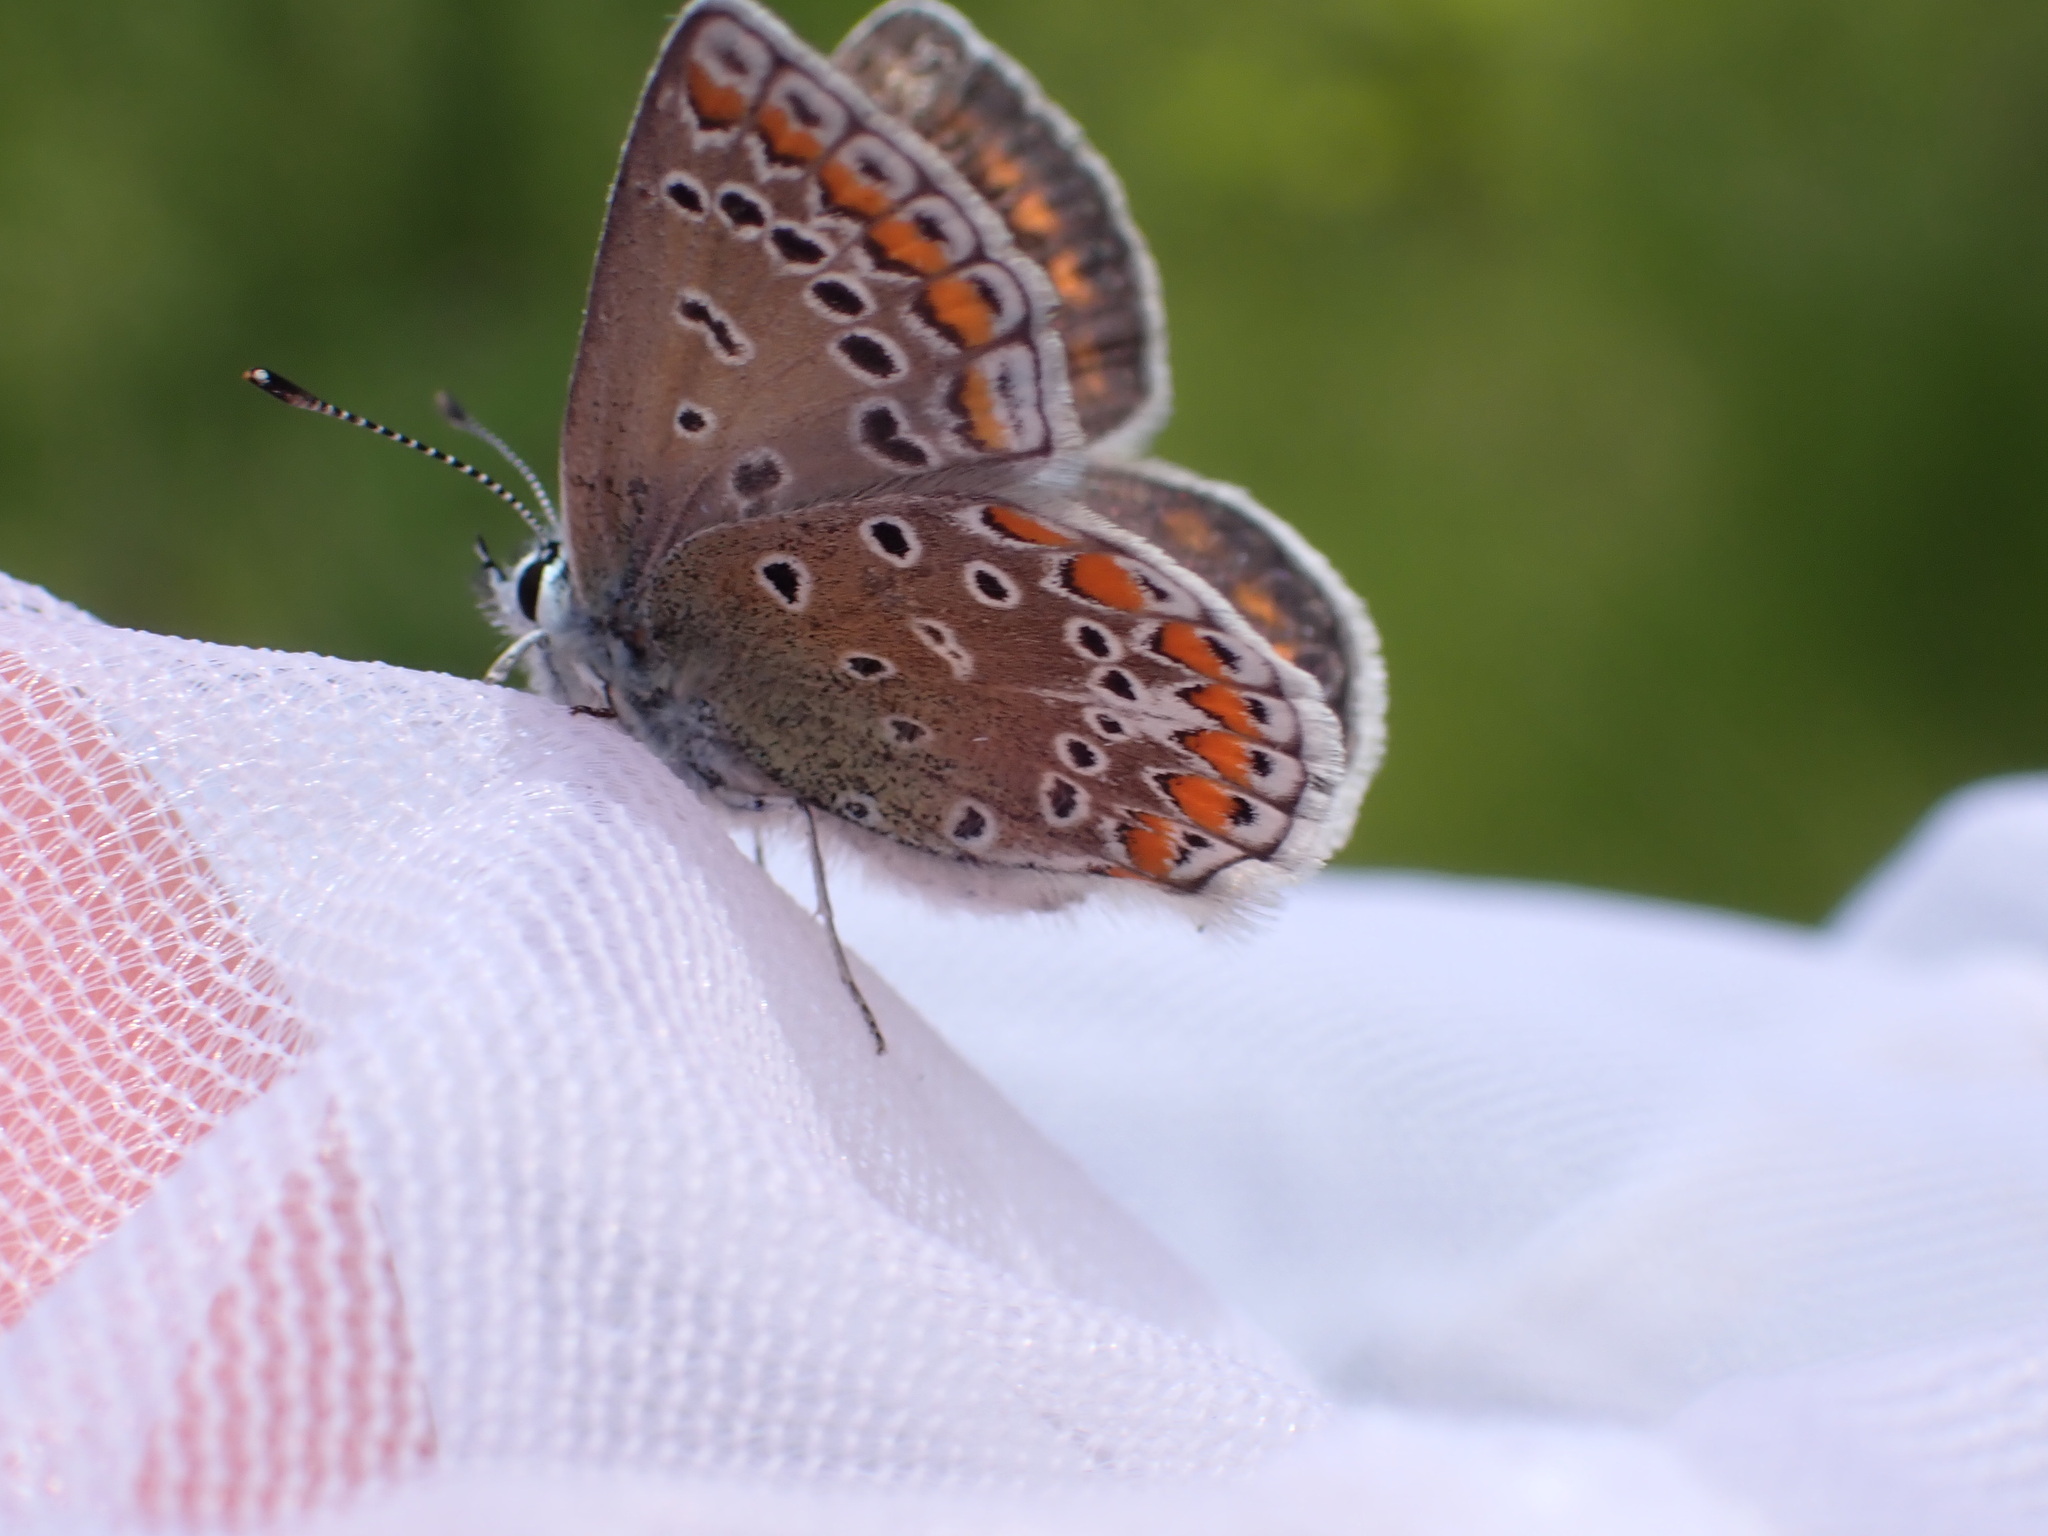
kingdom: Animalia
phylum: Arthropoda
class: Insecta
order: Lepidoptera
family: Lycaenidae
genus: Polyommatus
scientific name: Polyommatus icarus
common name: Common blue
